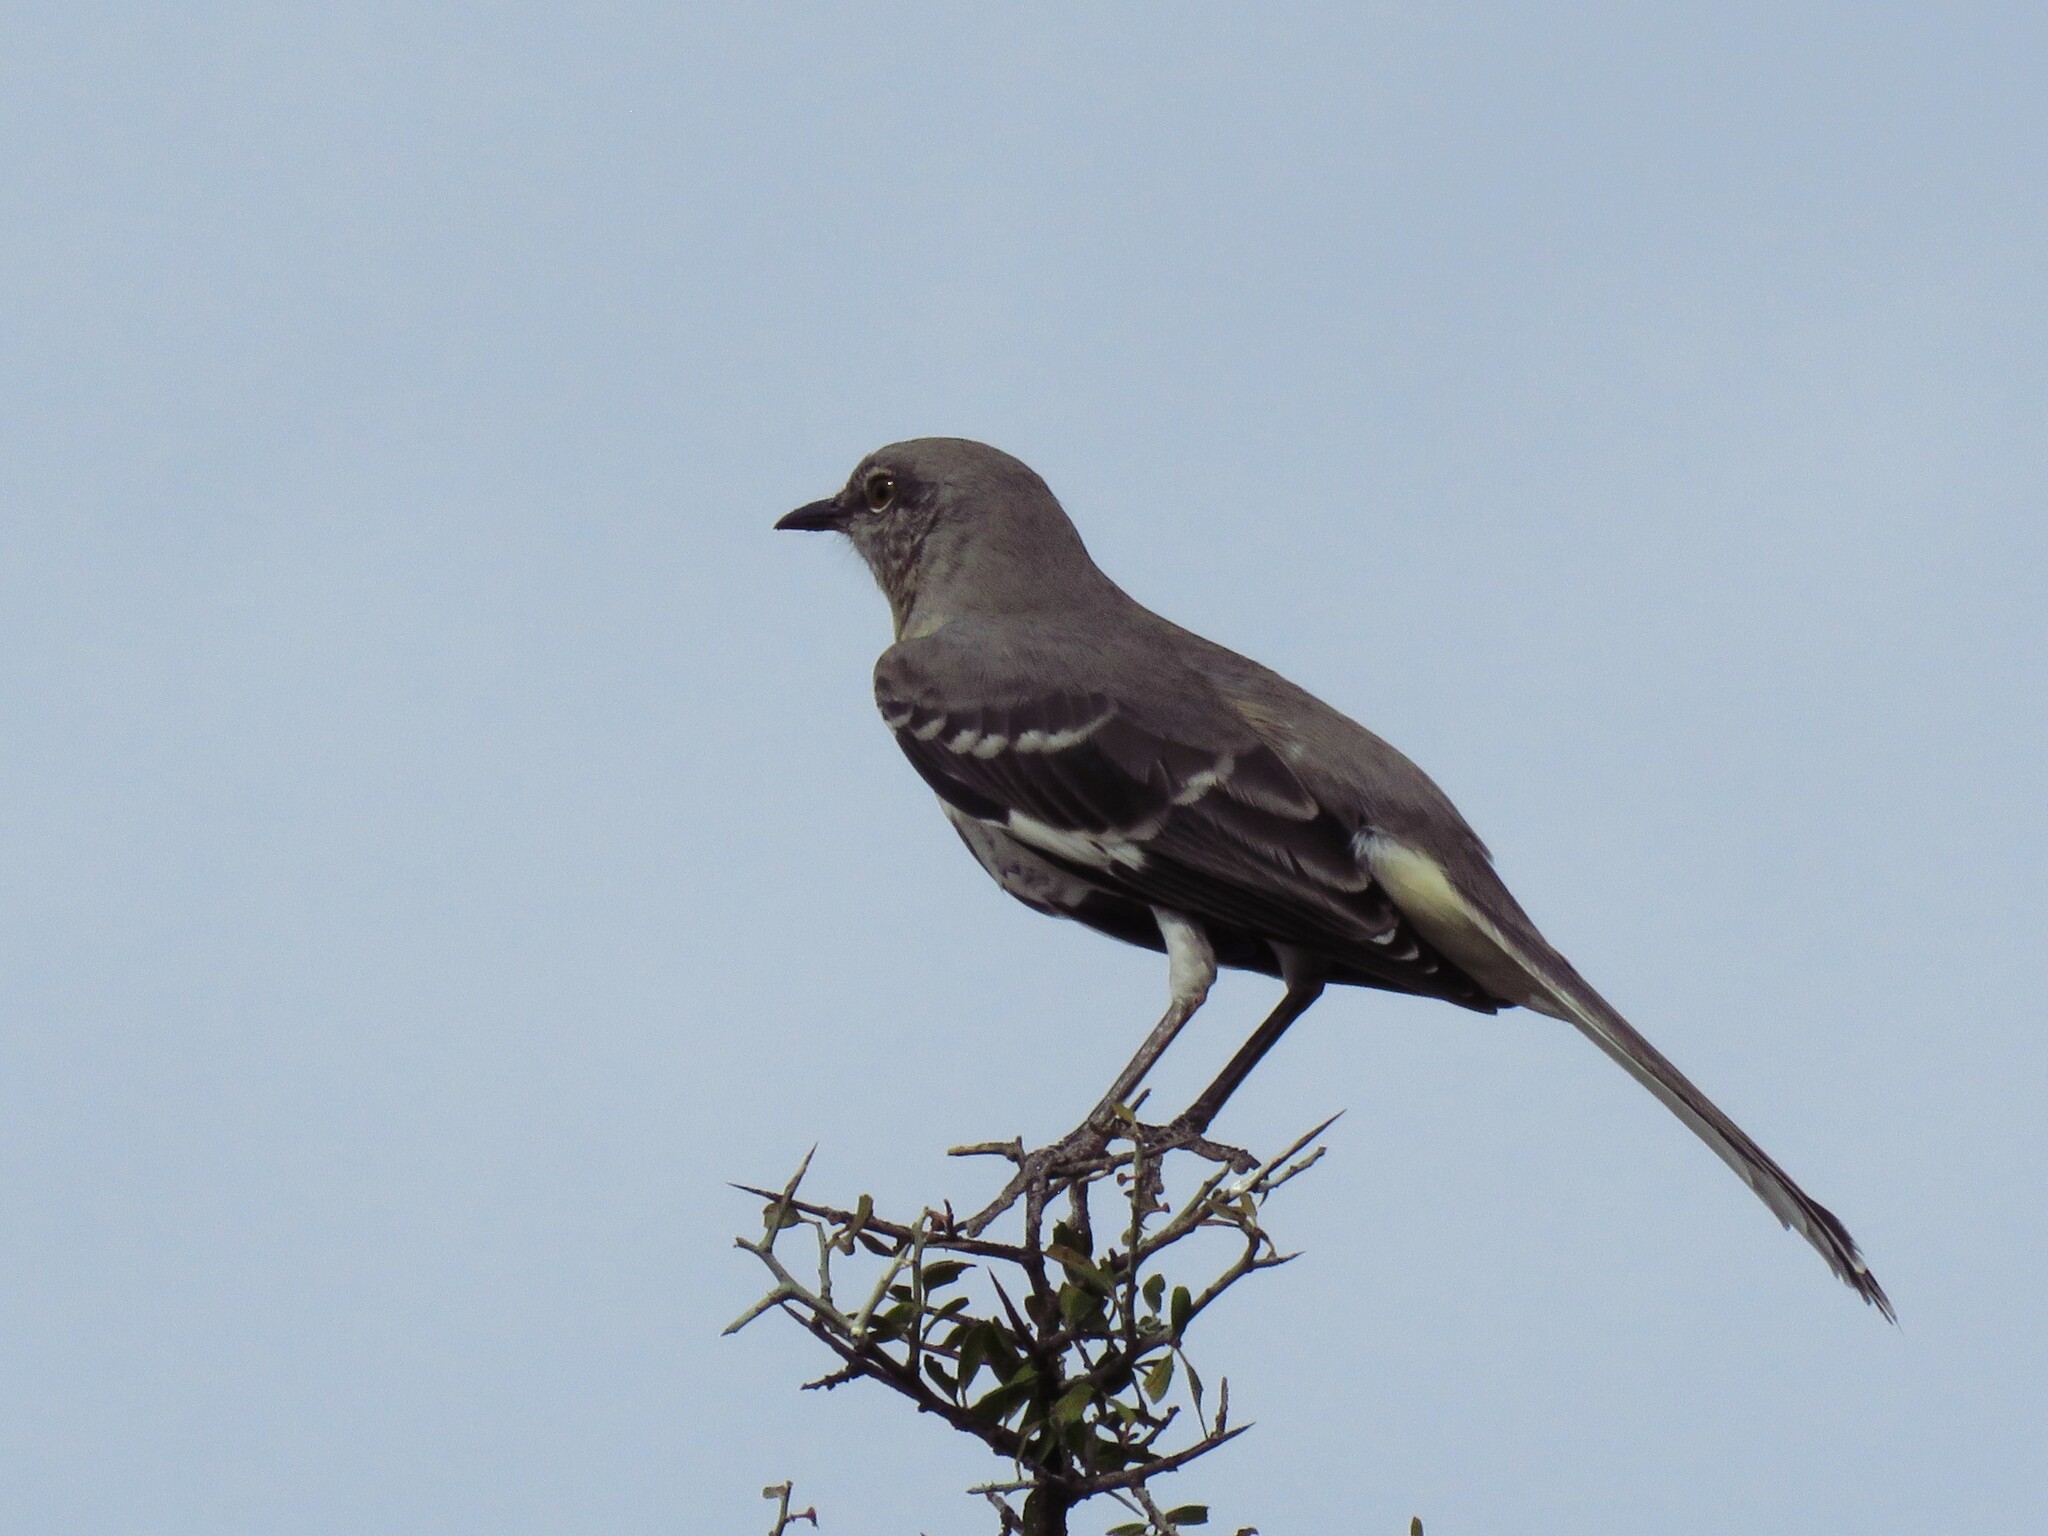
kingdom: Animalia
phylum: Chordata
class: Aves
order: Passeriformes
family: Mimidae
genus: Mimus
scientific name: Mimus polyglottos
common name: Northern mockingbird
